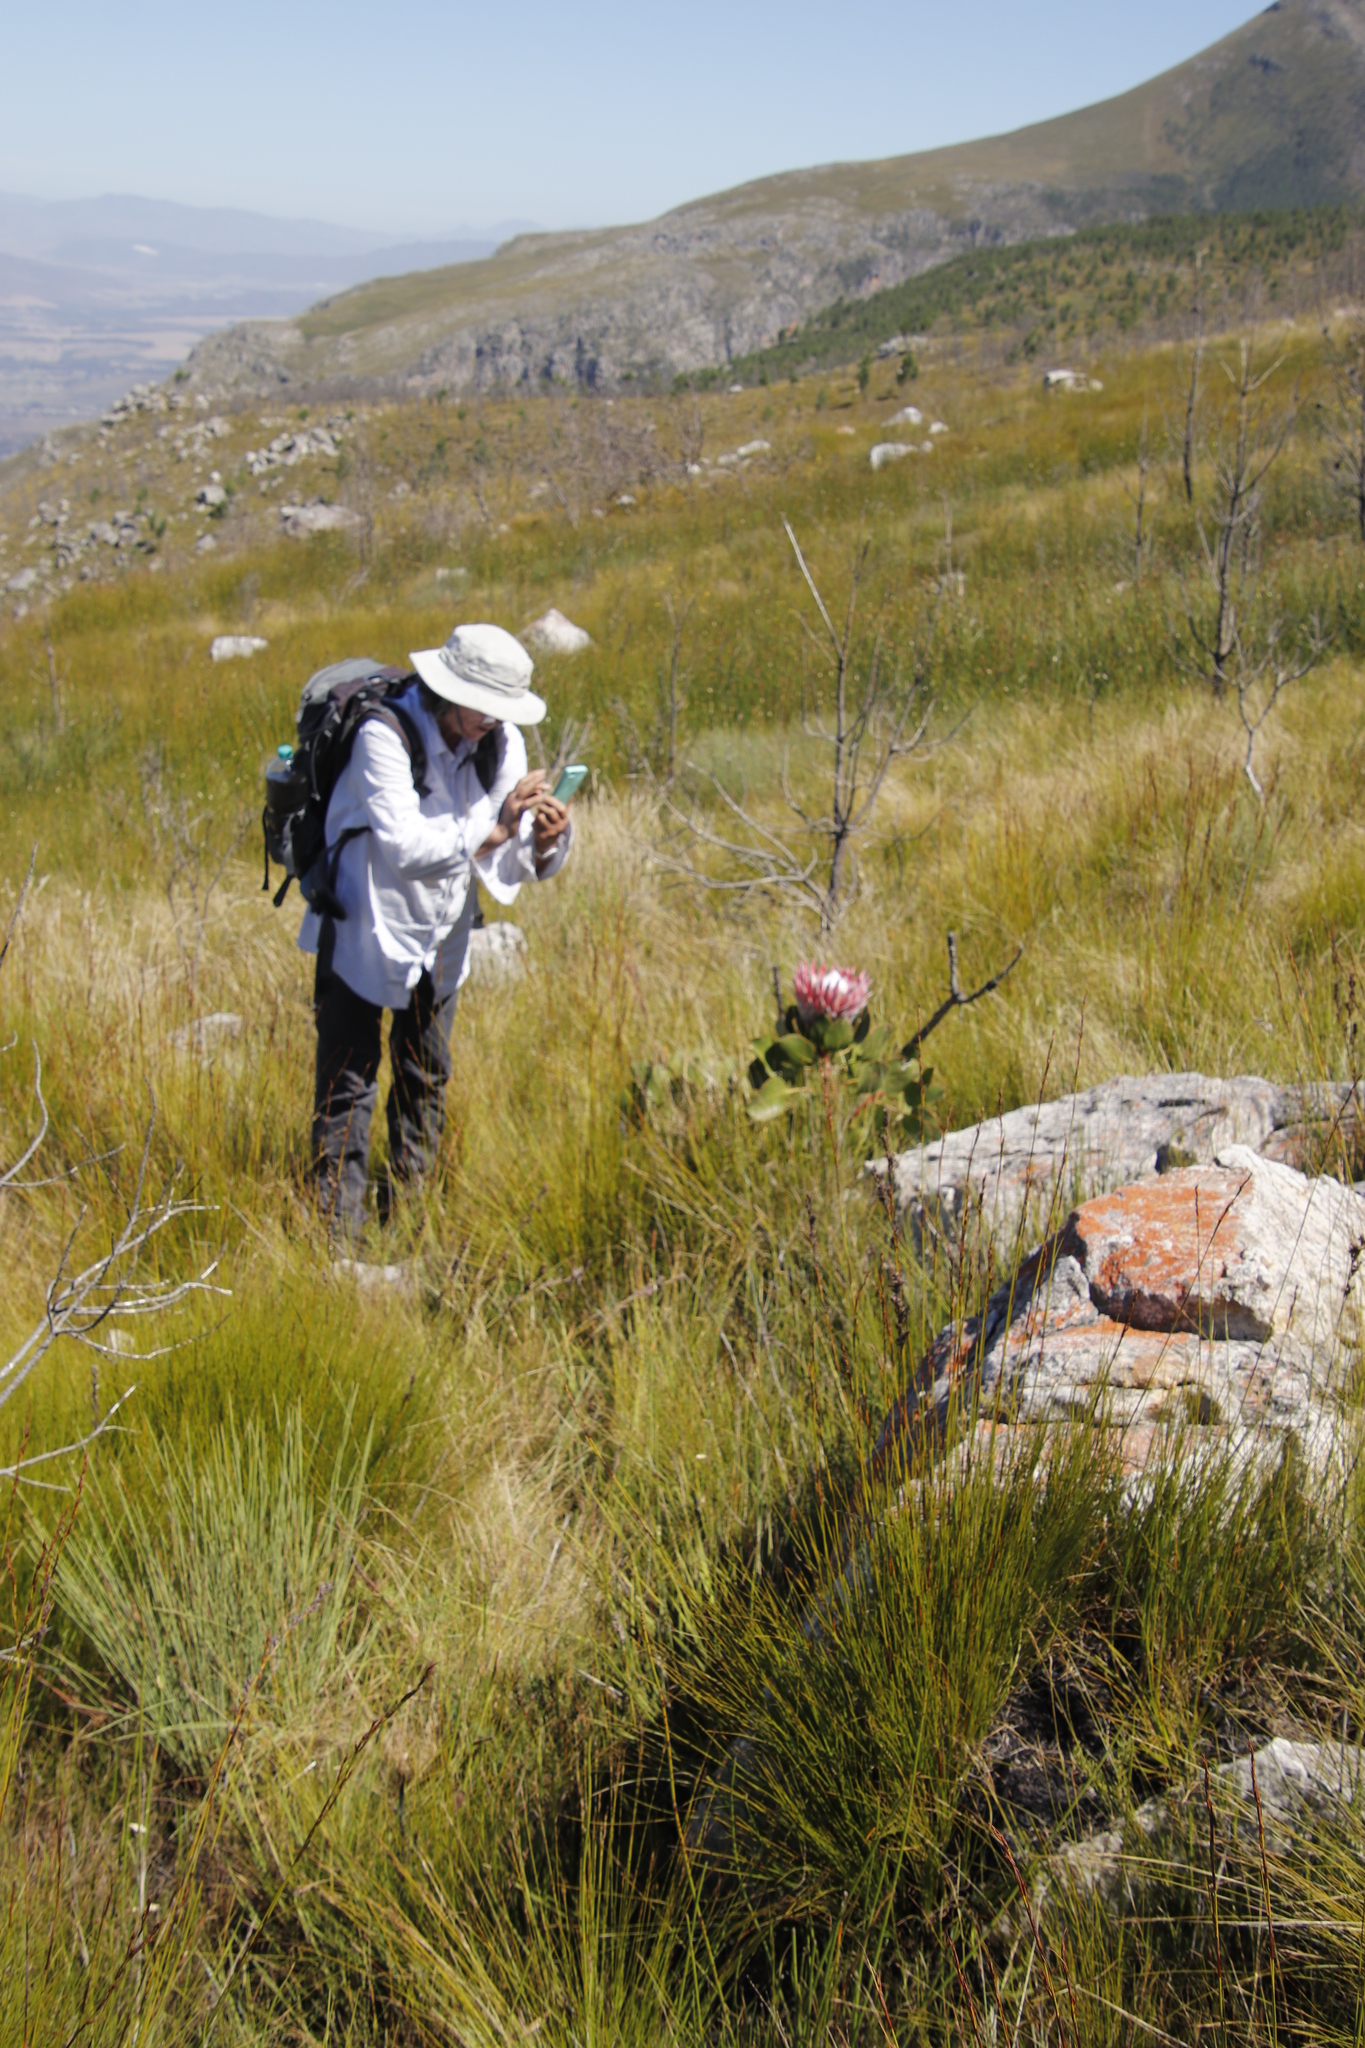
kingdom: Plantae
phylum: Tracheophyta
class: Magnoliopsida
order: Proteales
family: Proteaceae
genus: Protea
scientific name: Protea cynaroides
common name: King protea
